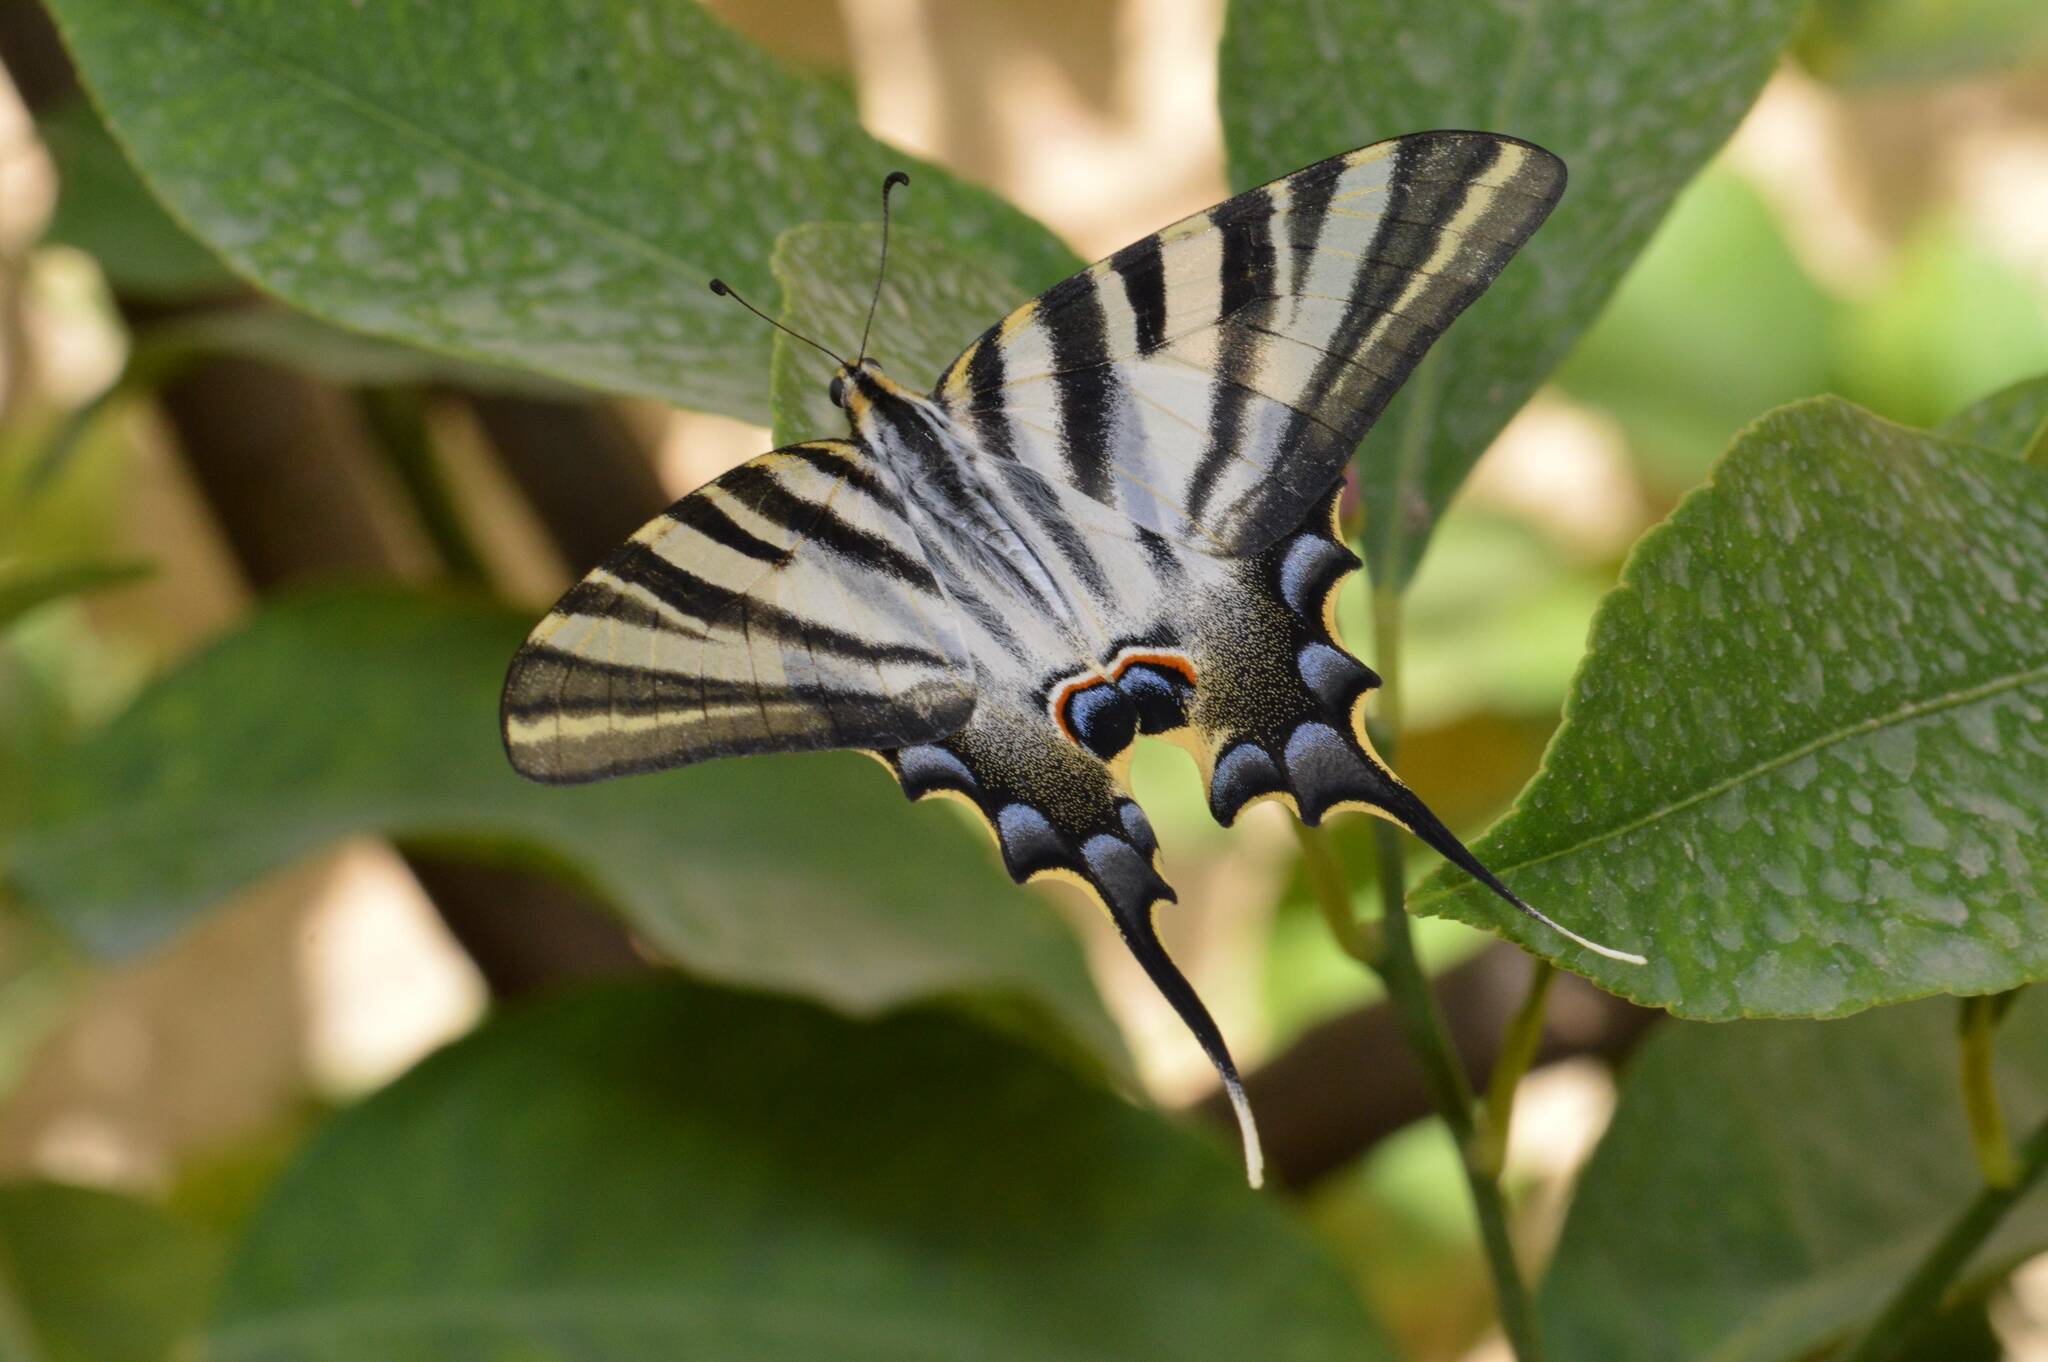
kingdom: Animalia
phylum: Arthropoda
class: Insecta
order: Lepidoptera
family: Papilionidae
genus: Iphiclides
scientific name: Iphiclides feisthamelii
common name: Iberian scarce swallowtail
